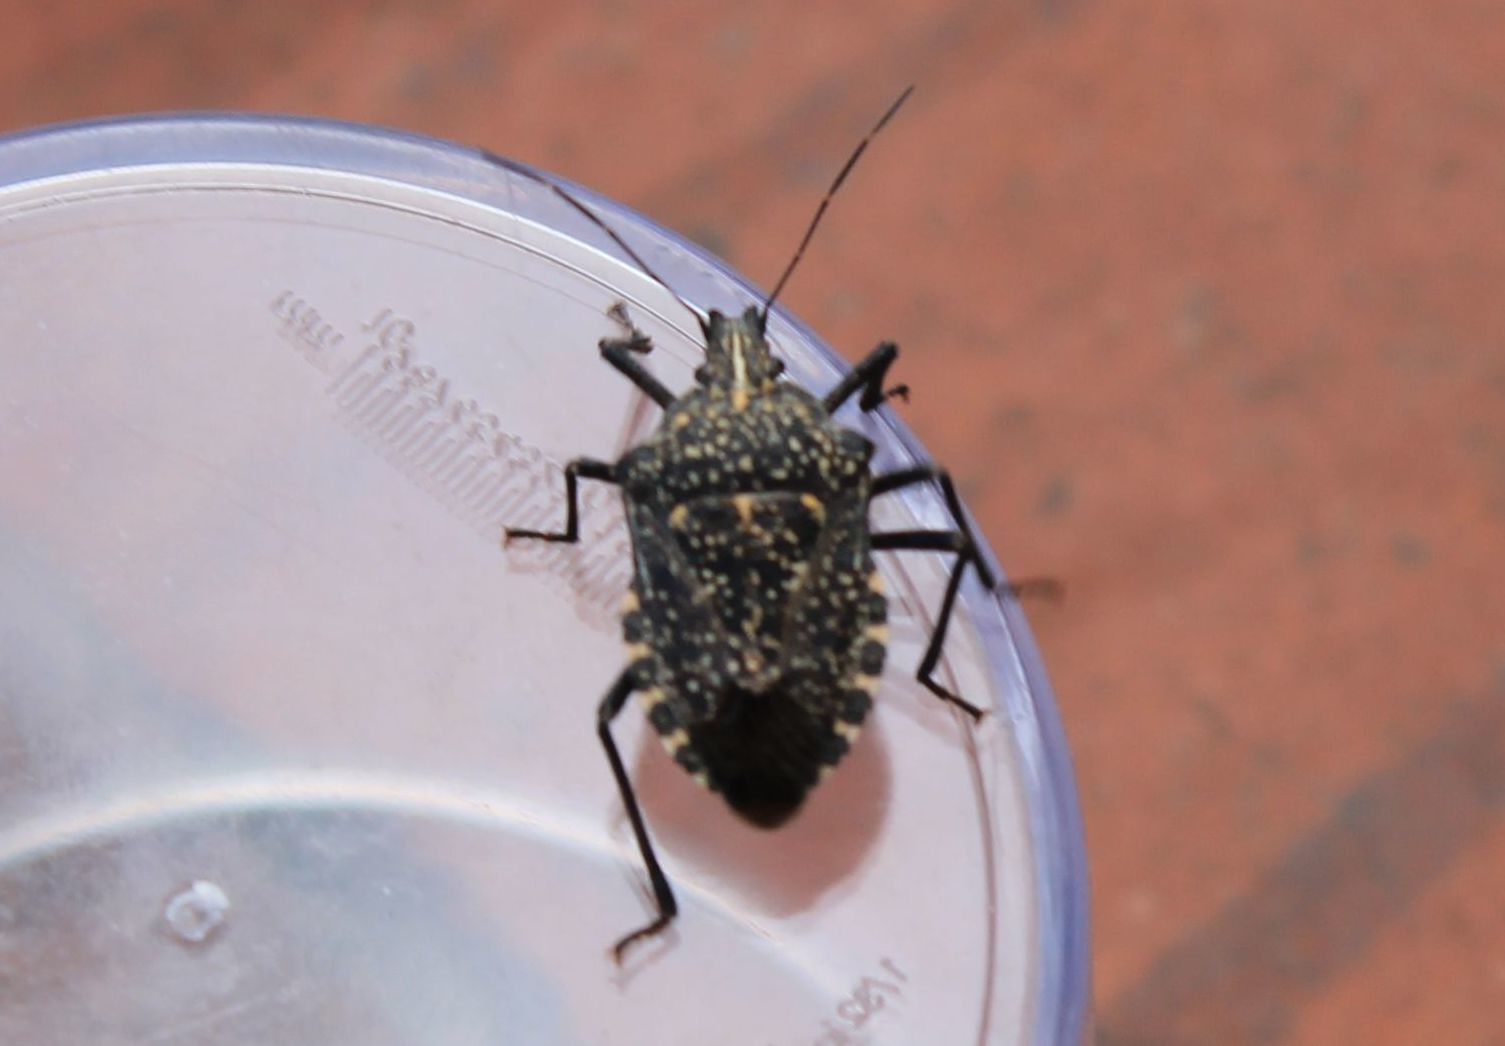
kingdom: Animalia
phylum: Arthropoda
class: Insecta
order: Hemiptera
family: Pentatomidae
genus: Apodiphus
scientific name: Apodiphus amygdali
